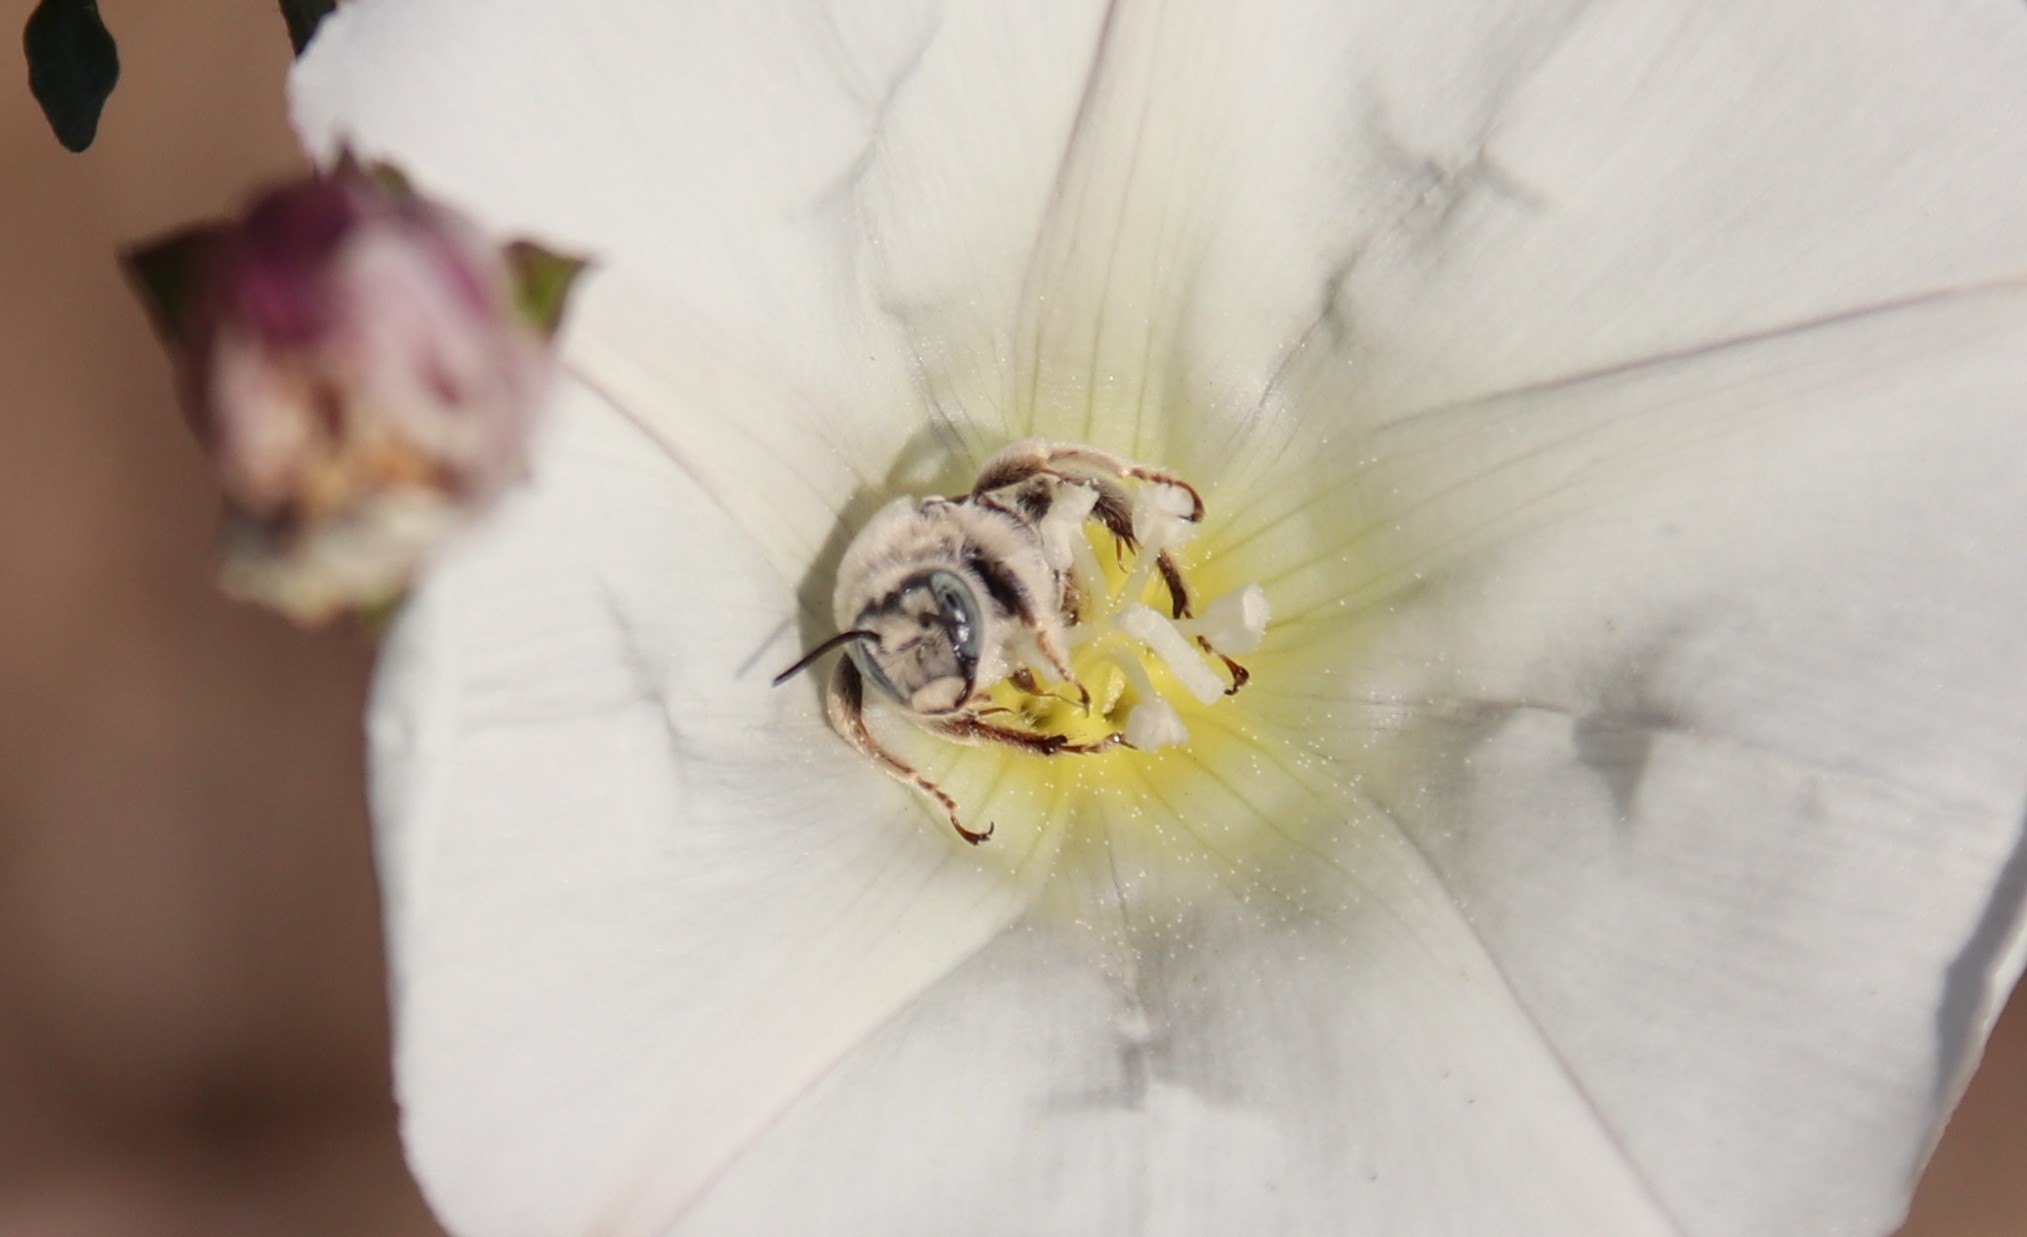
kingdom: Animalia
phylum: Arthropoda
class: Insecta
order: Hymenoptera
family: Apidae
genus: Diadasia
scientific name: Diadasia rinconis
